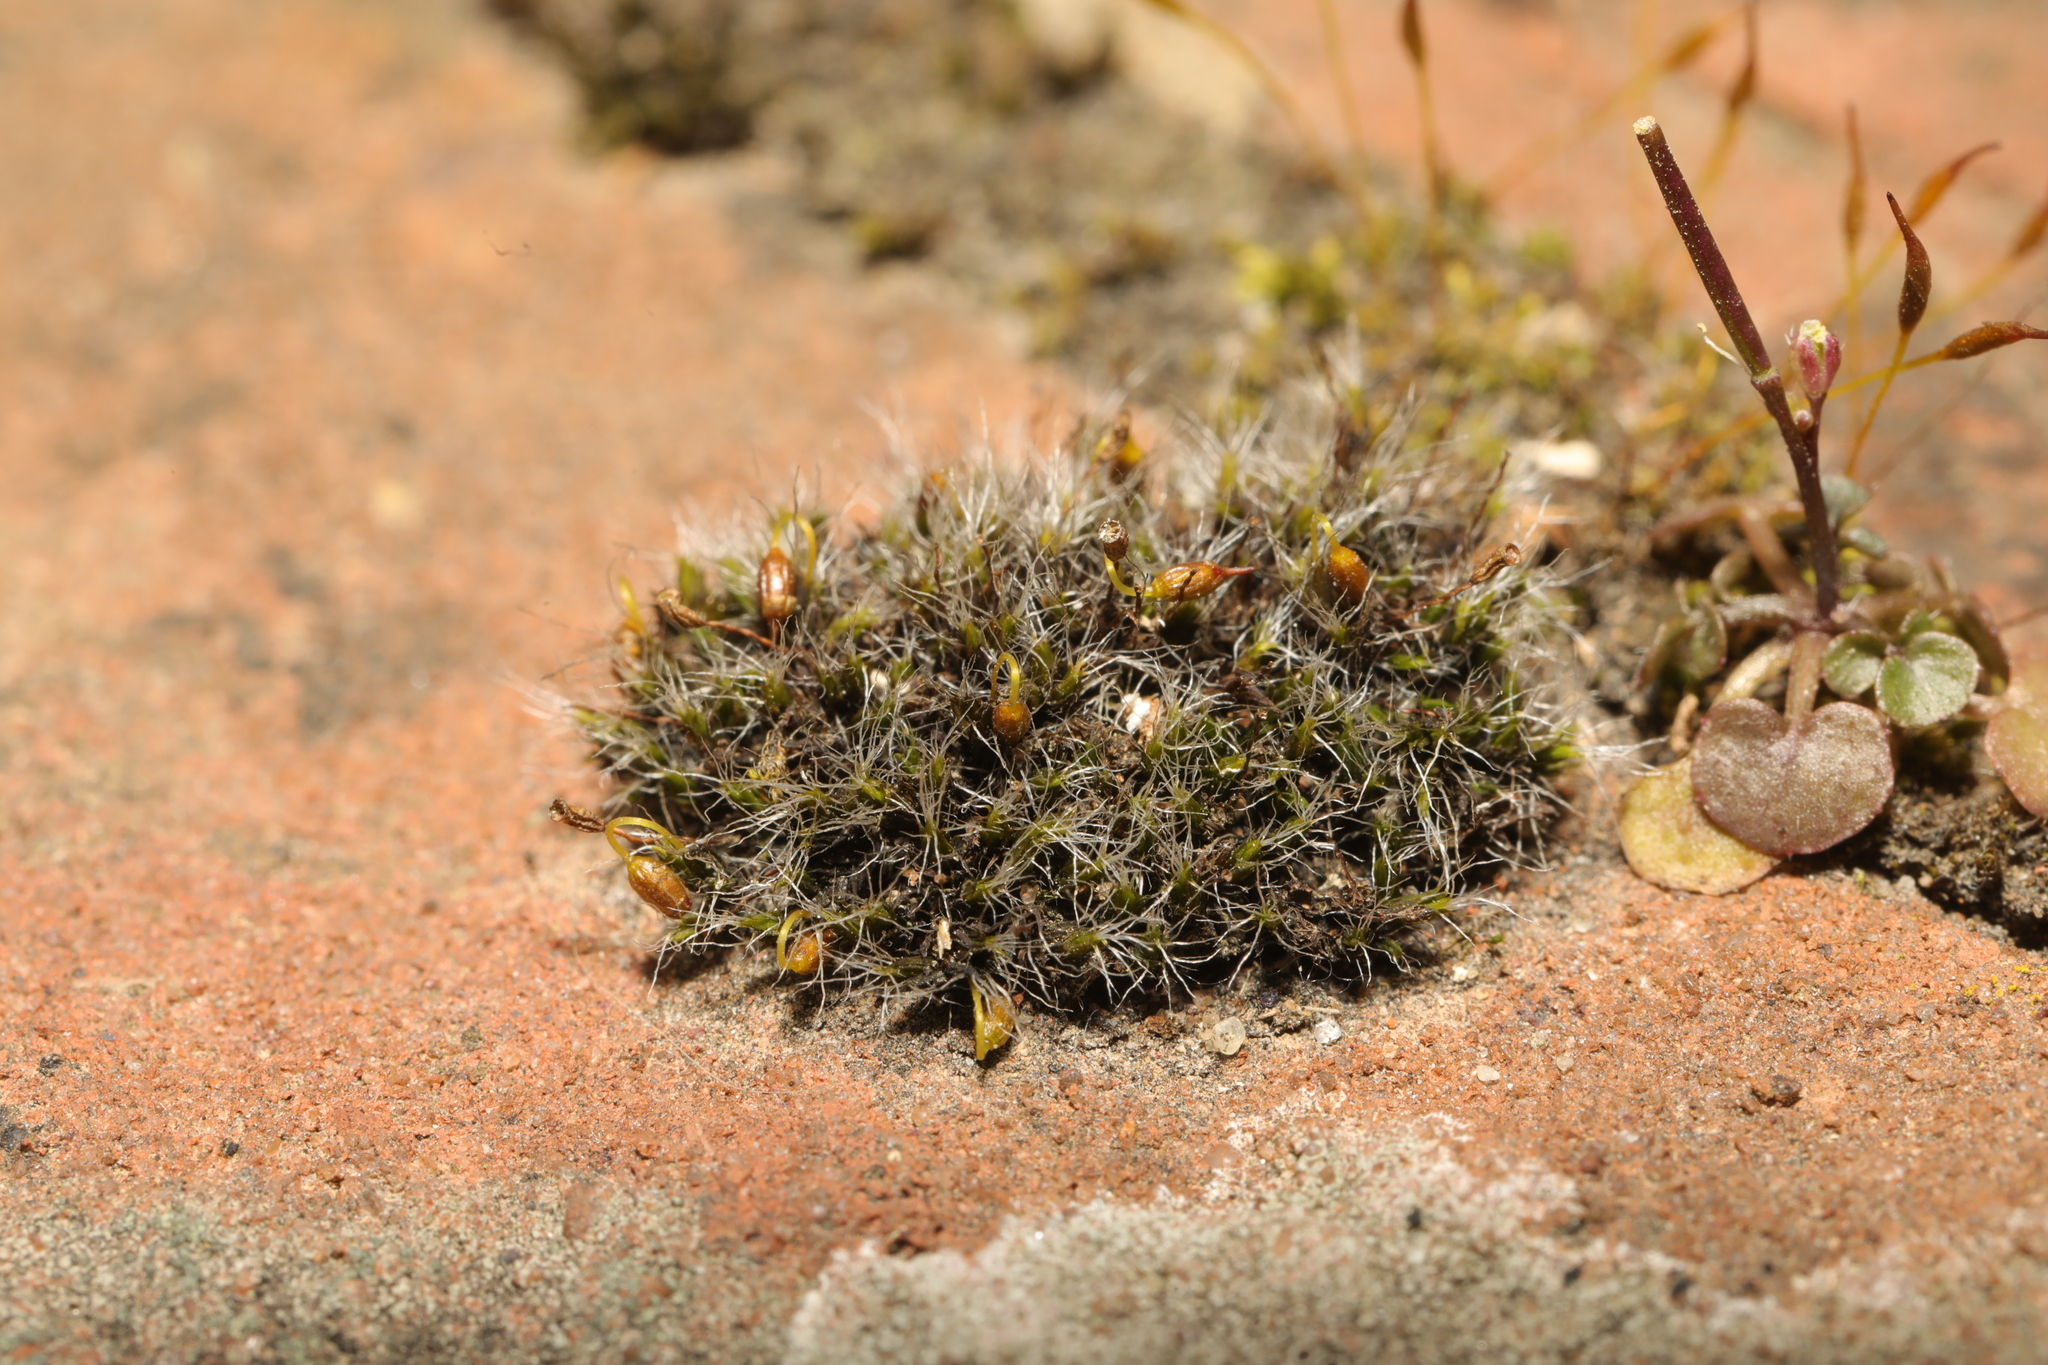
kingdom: Plantae
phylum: Bryophyta
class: Bryopsida
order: Grimmiales
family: Grimmiaceae
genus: Grimmia
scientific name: Grimmia pulvinata
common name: Grey-cushioned grimmia
